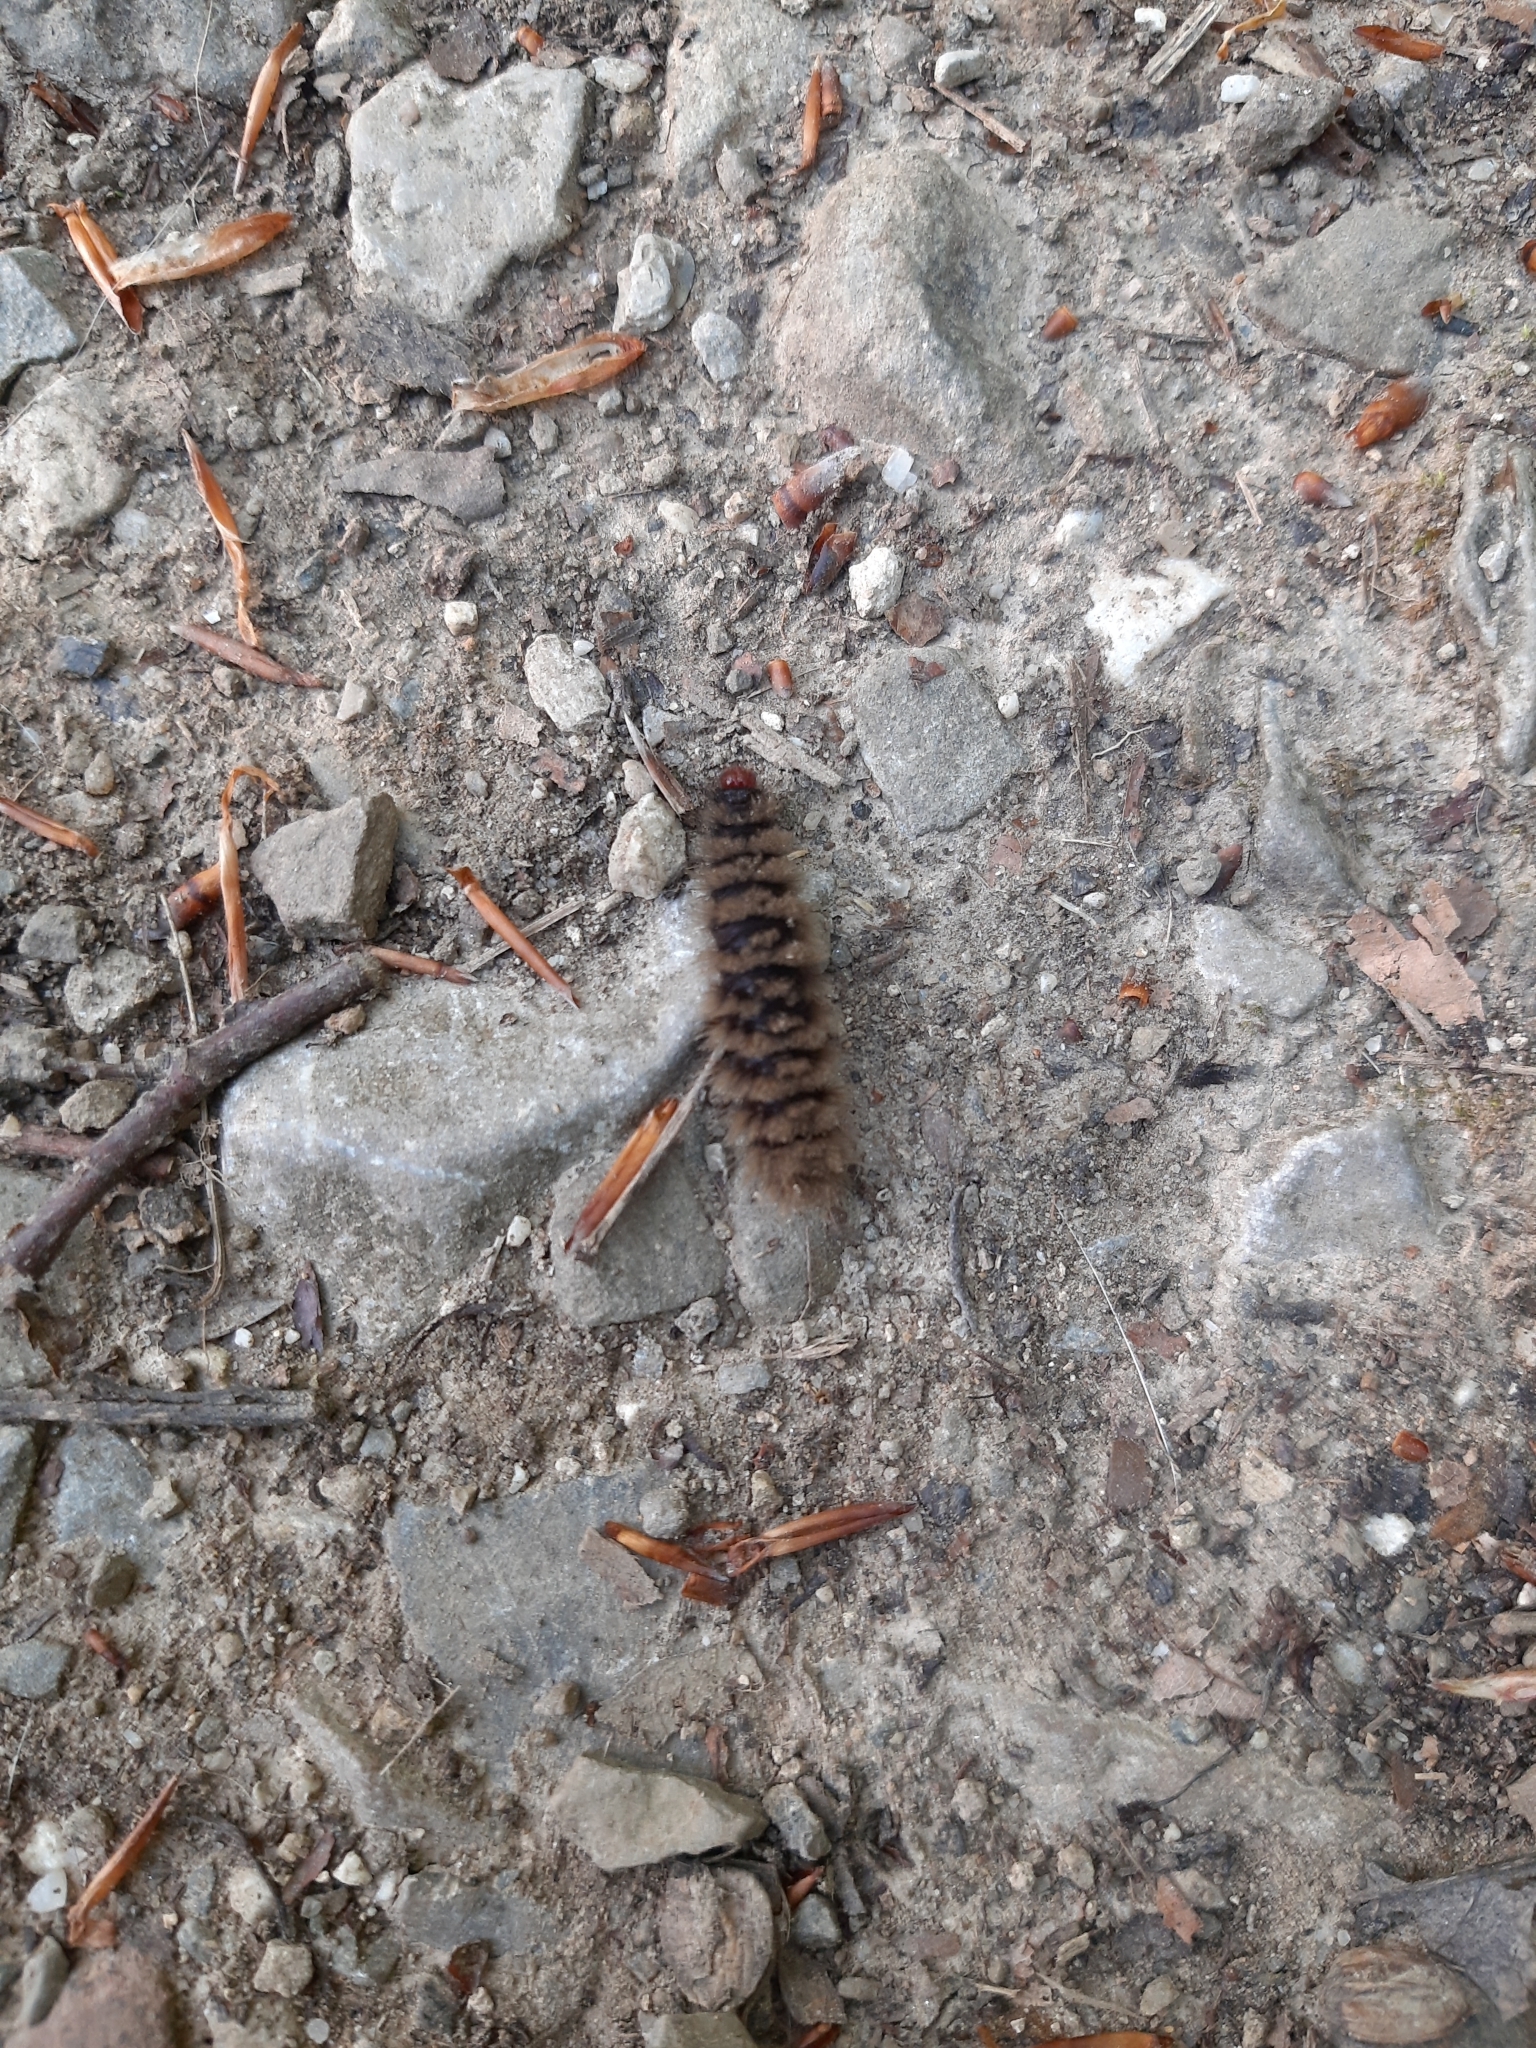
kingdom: Animalia
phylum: Arthropoda
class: Insecta
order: Lepidoptera
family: Erebidae
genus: Amata
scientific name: Amata phegea
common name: Nine-spotted
